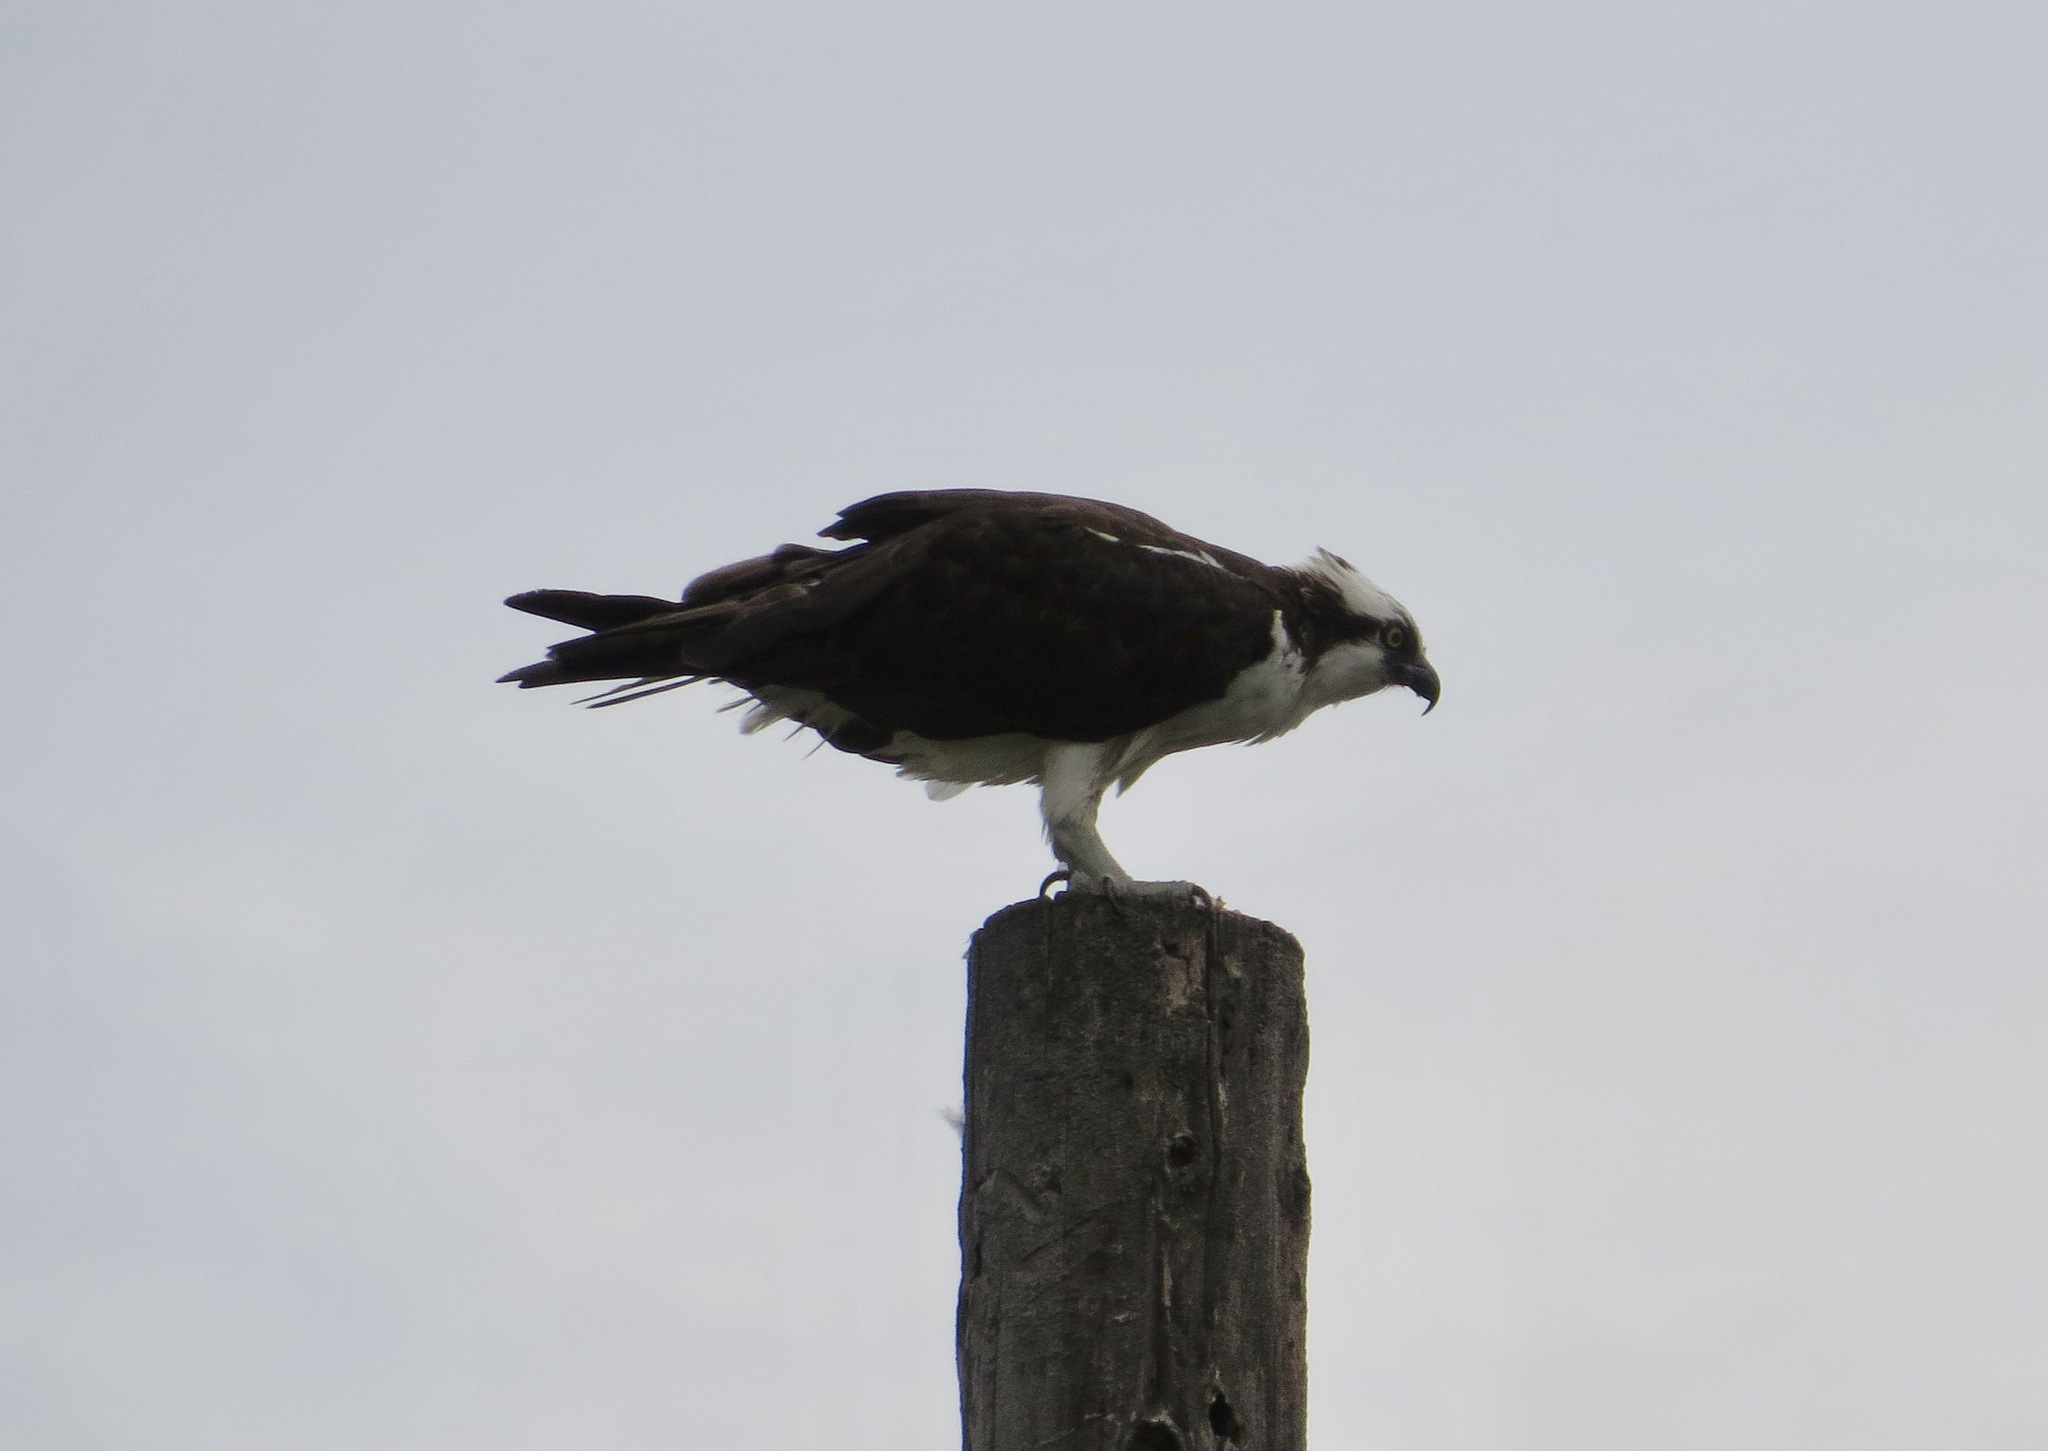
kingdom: Animalia
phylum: Chordata
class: Aves
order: Accipitriformes
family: Pandionidae
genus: Pandion
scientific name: Pandion haliaetus
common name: Osprey
